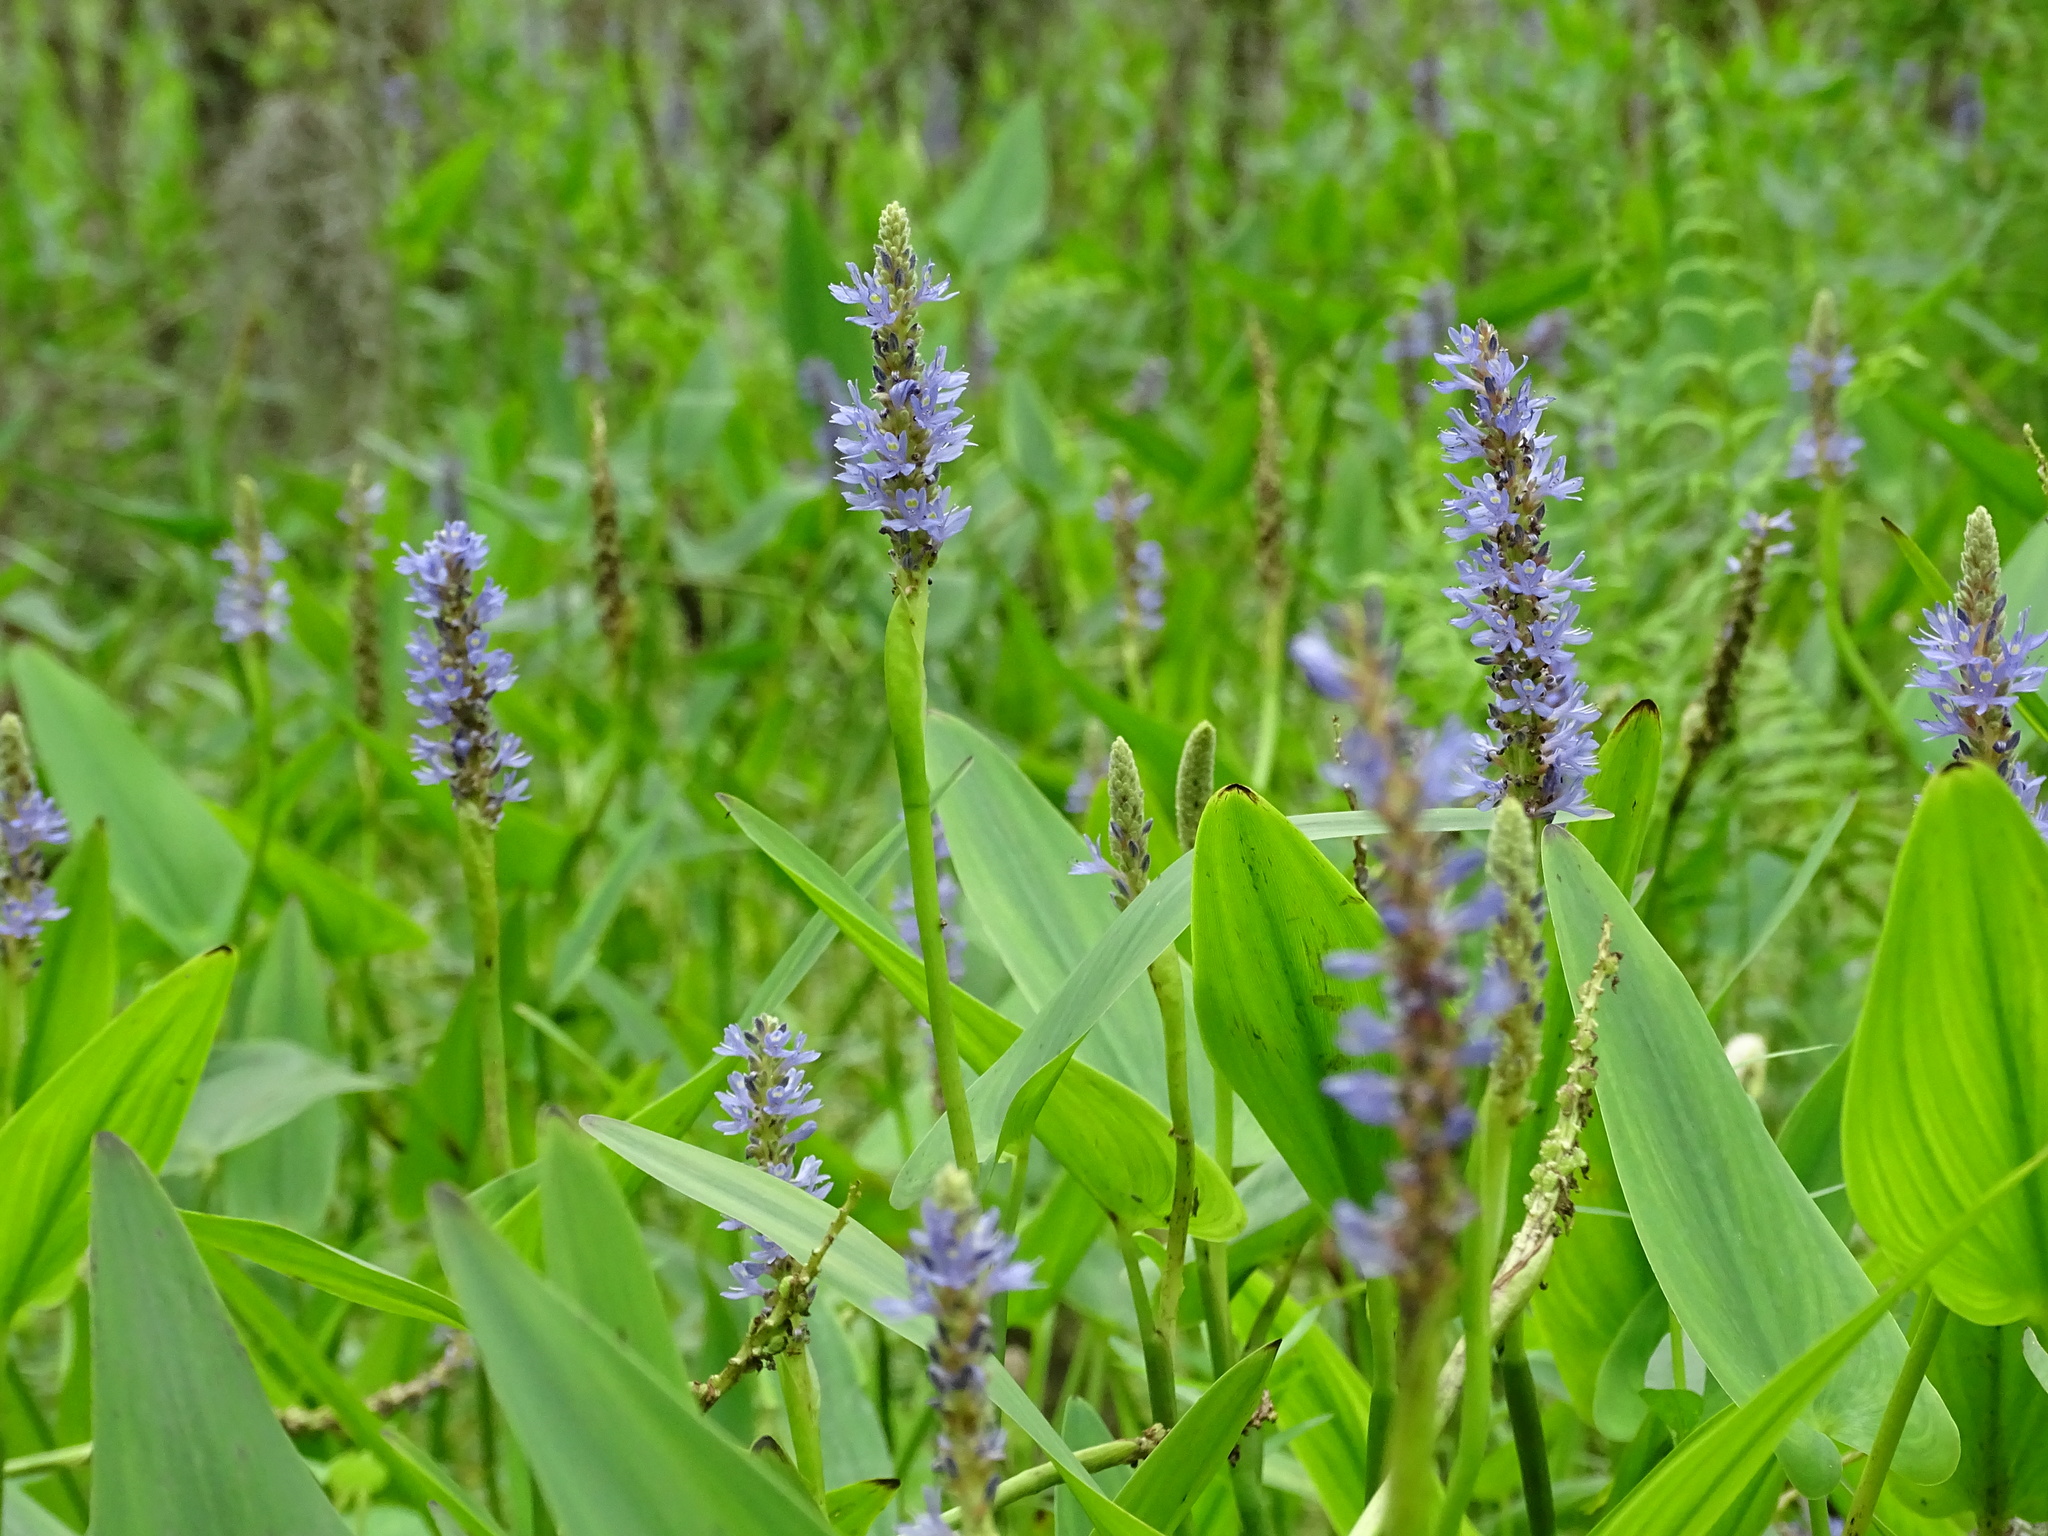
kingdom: Plantae
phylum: Tracheophyta
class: Liliopsida
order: Commelinales
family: Pontederiaceae
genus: Pontederia
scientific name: Pontederia cordata
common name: Pickerelweed
